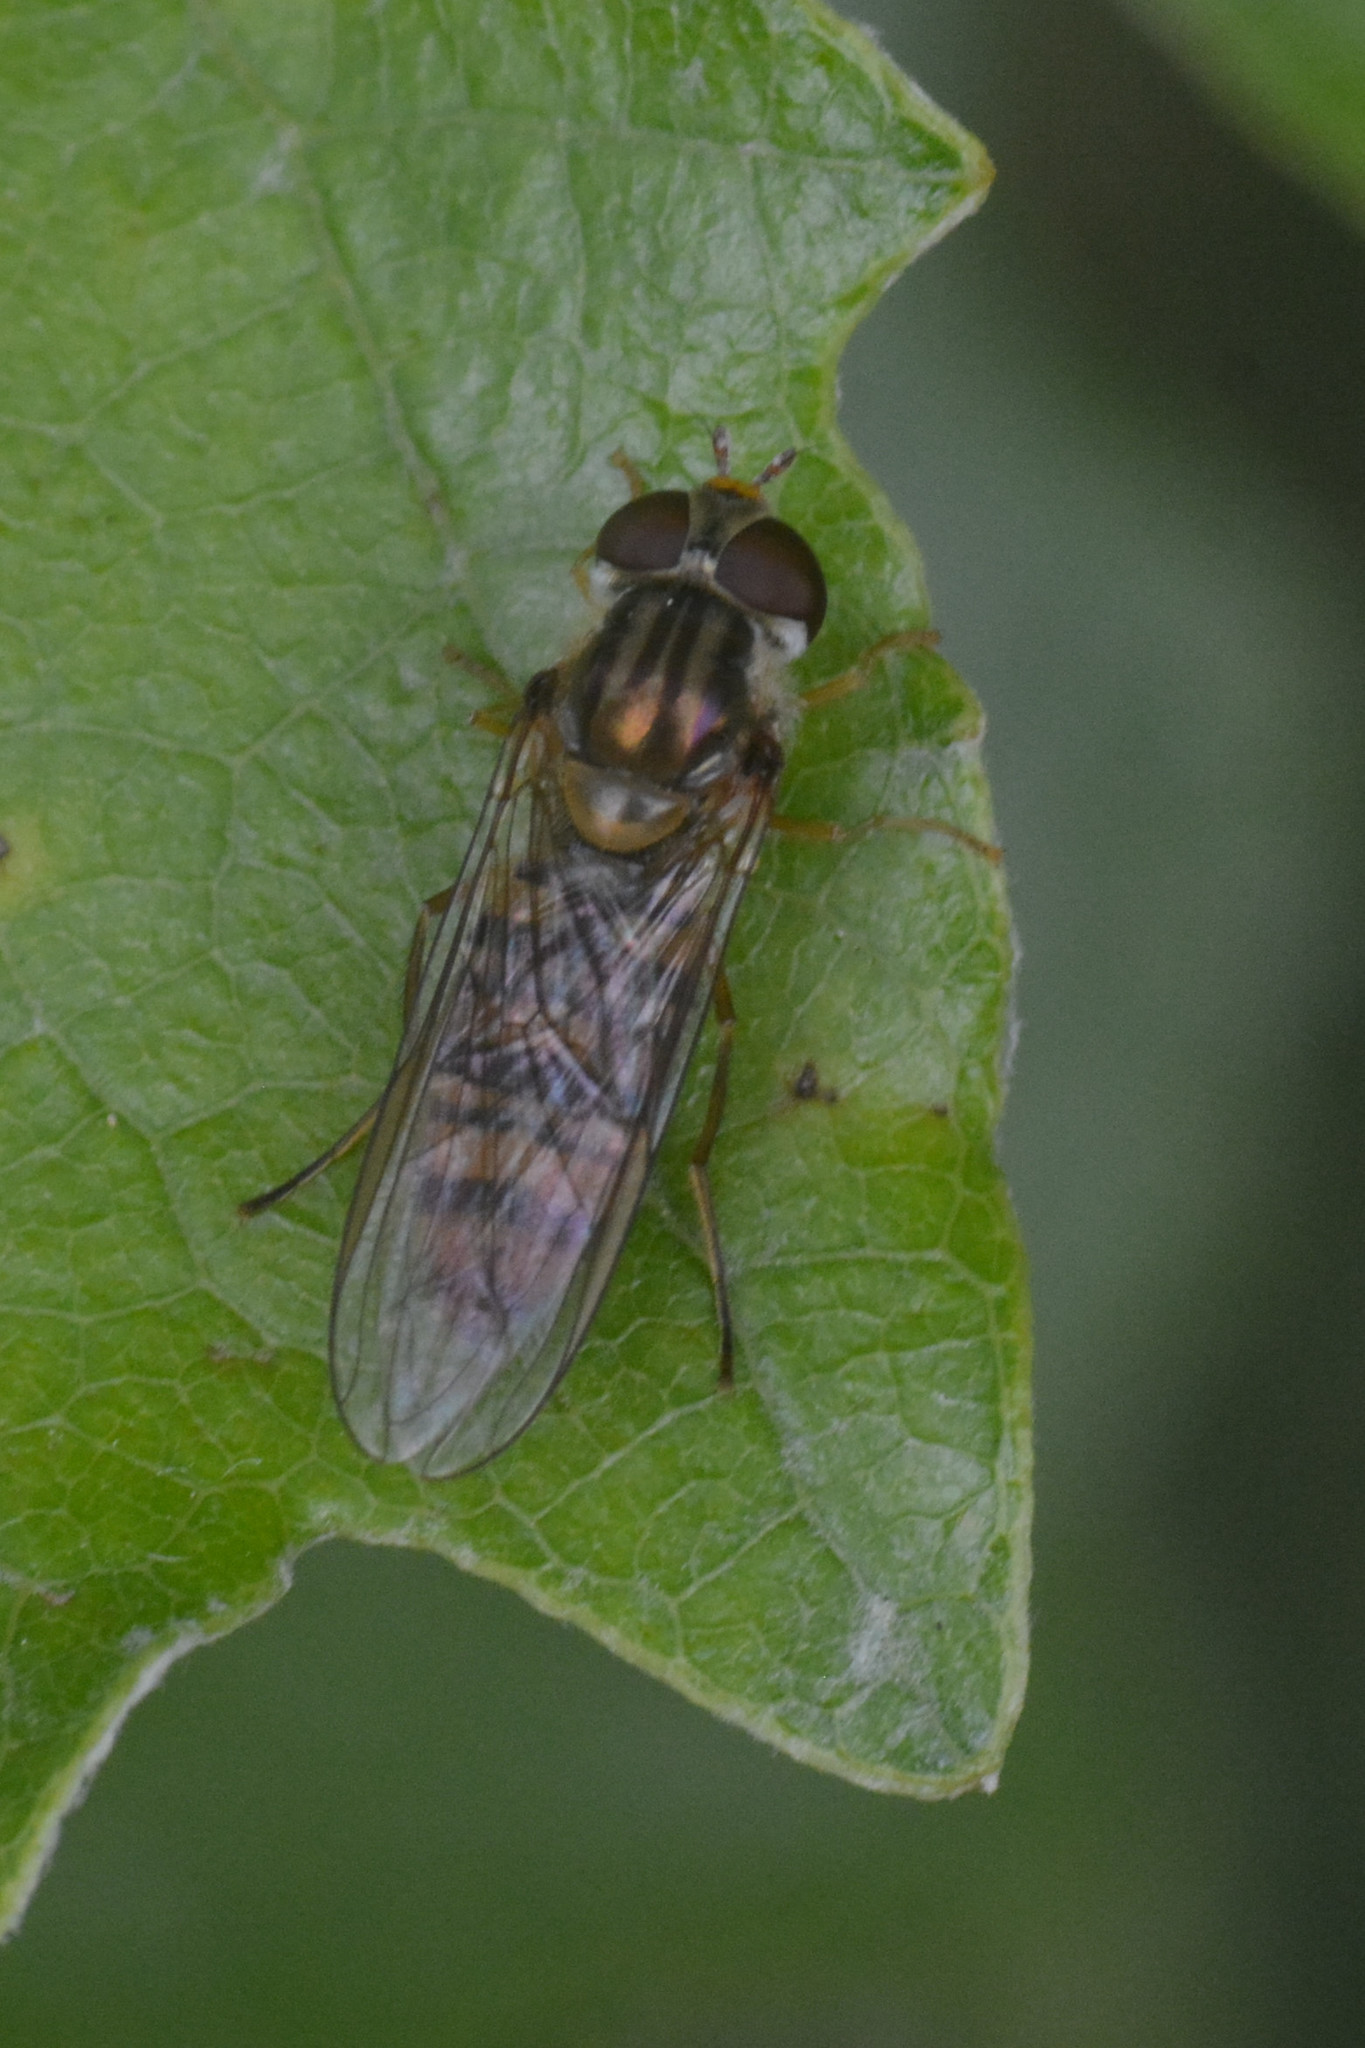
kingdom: Animalia
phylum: Arthropoda
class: Insecta
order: Diptera
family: Syrphidae
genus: Episyrphus
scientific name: Episyrphus balteatus
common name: Marmalade hoverfly
